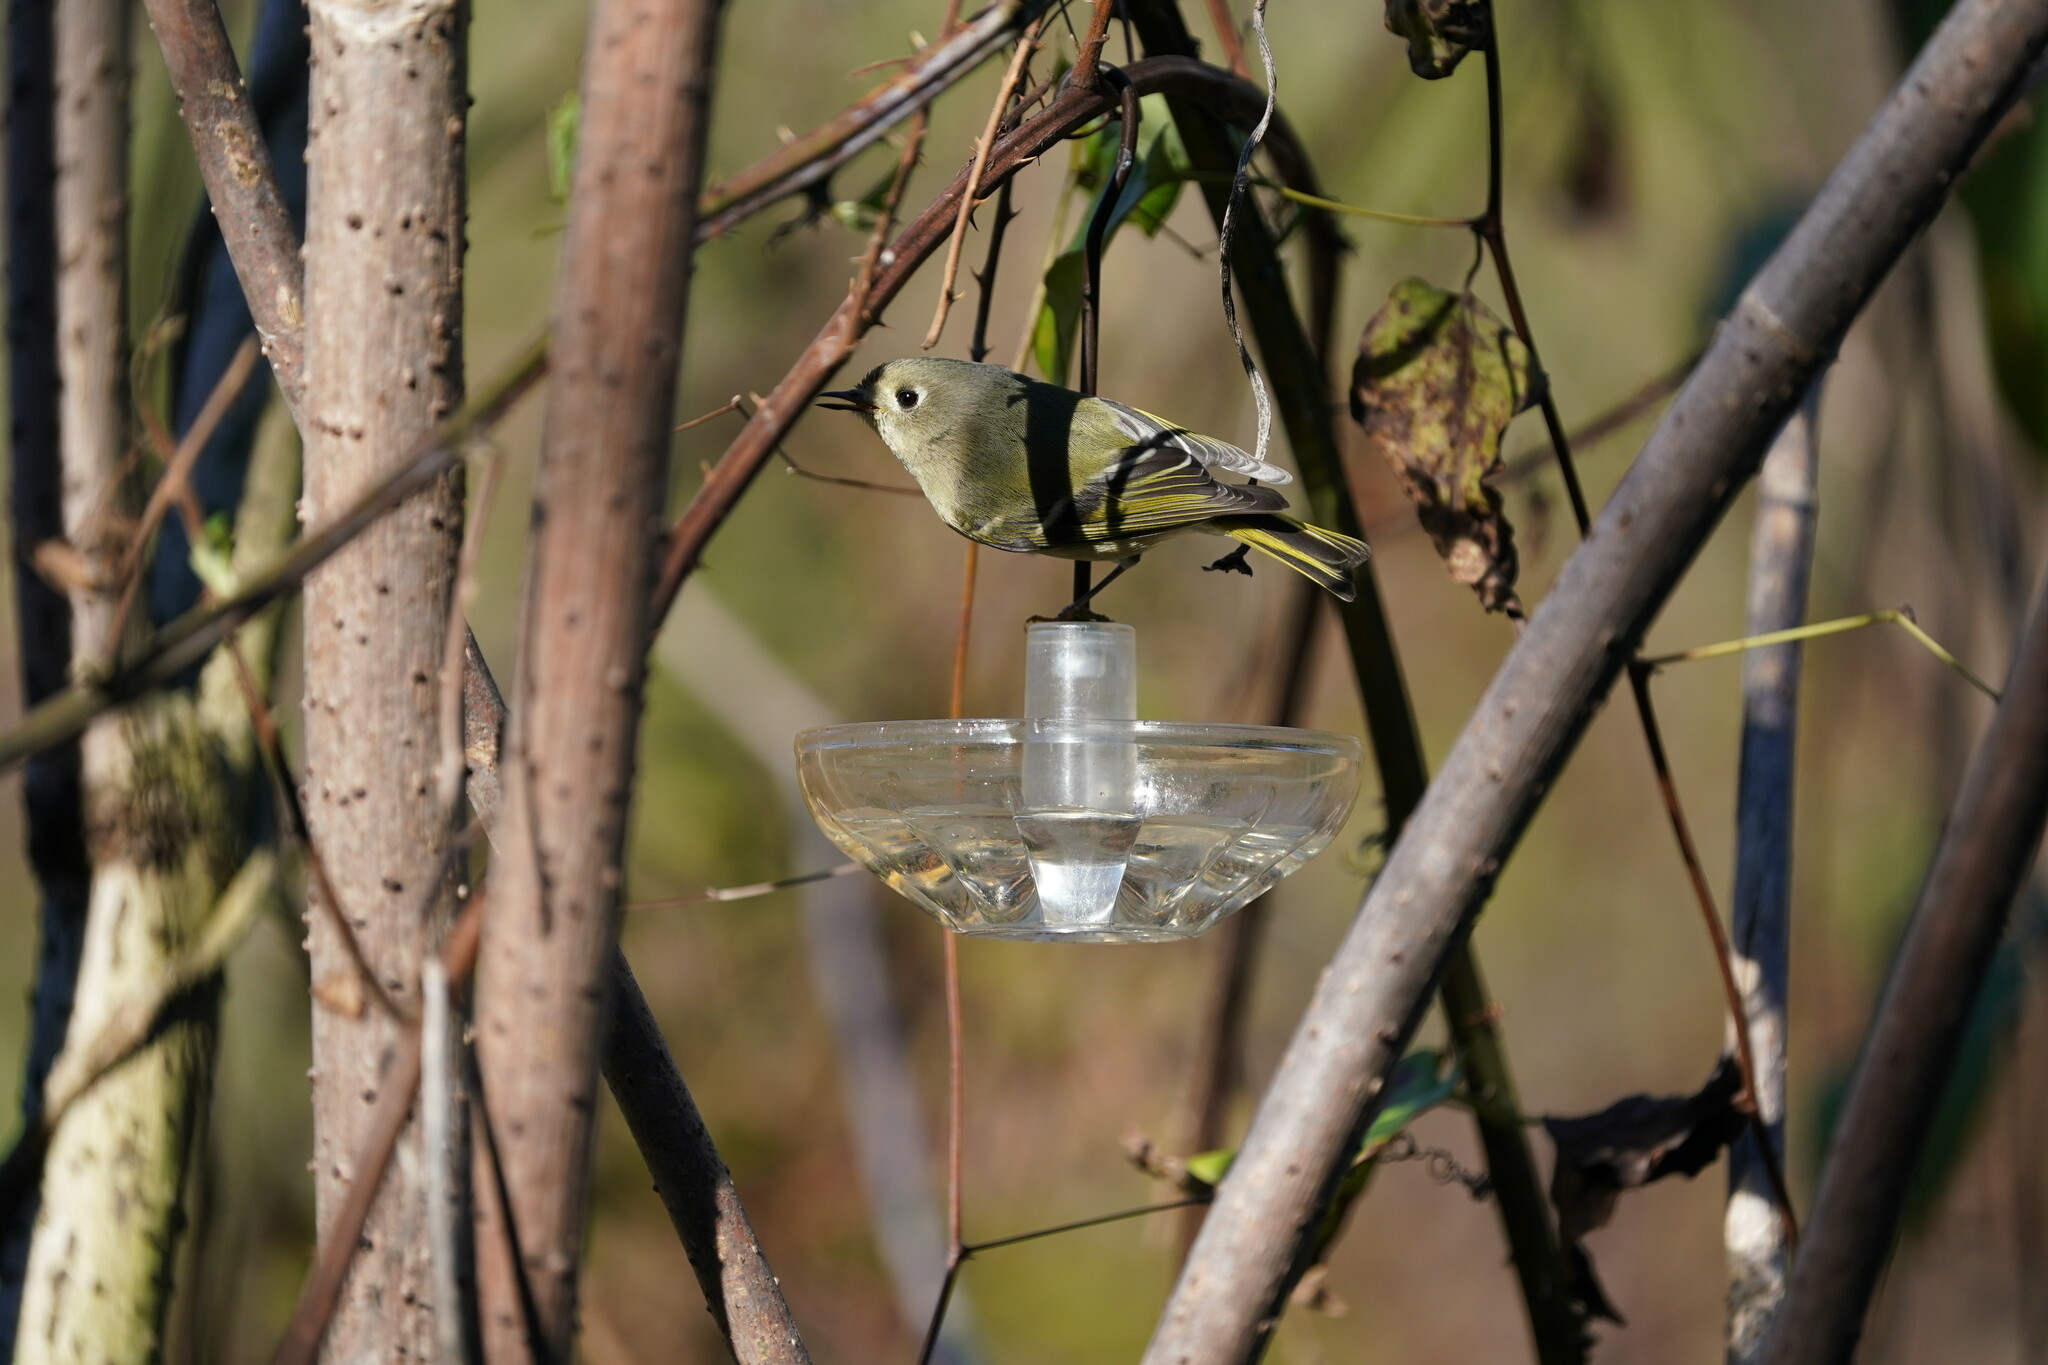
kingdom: Animalia
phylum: Chordata
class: Aves
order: Passeriformes
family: Regulidae
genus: Regulus
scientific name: Regulus calendula
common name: Ruby-crowned kinglet
